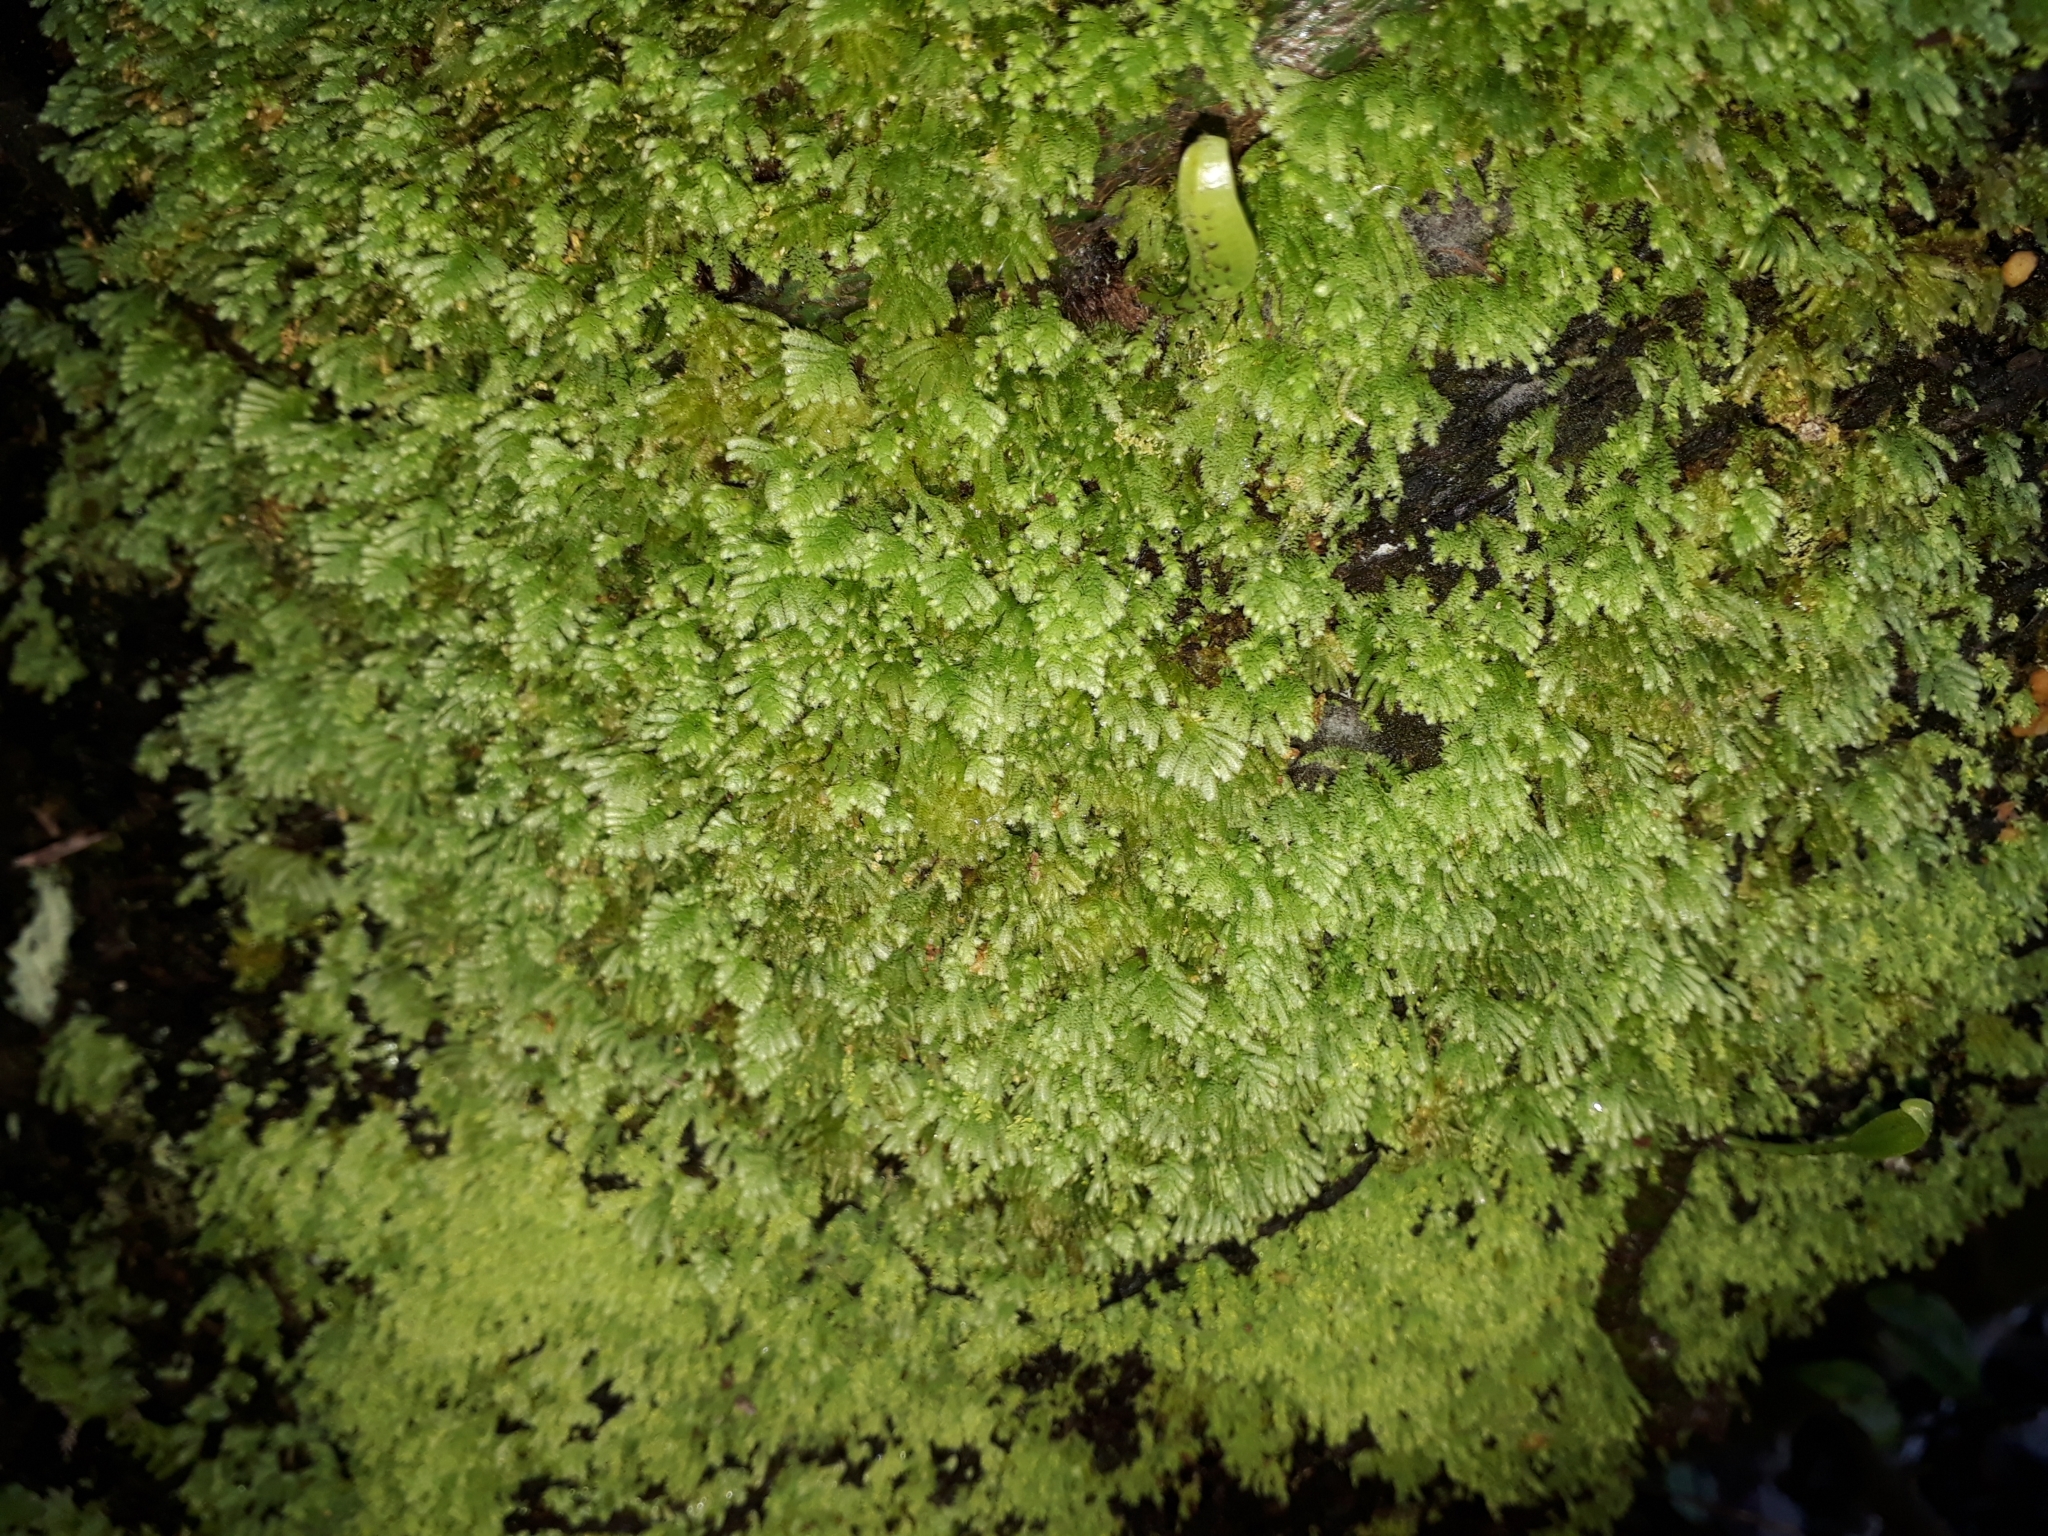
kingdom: Plantae
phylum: Bryophyta
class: Bryopsida
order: Hypopterygiales
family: Hypopterygiaceae
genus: Catharomnion
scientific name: Catharomnion ciliatum
